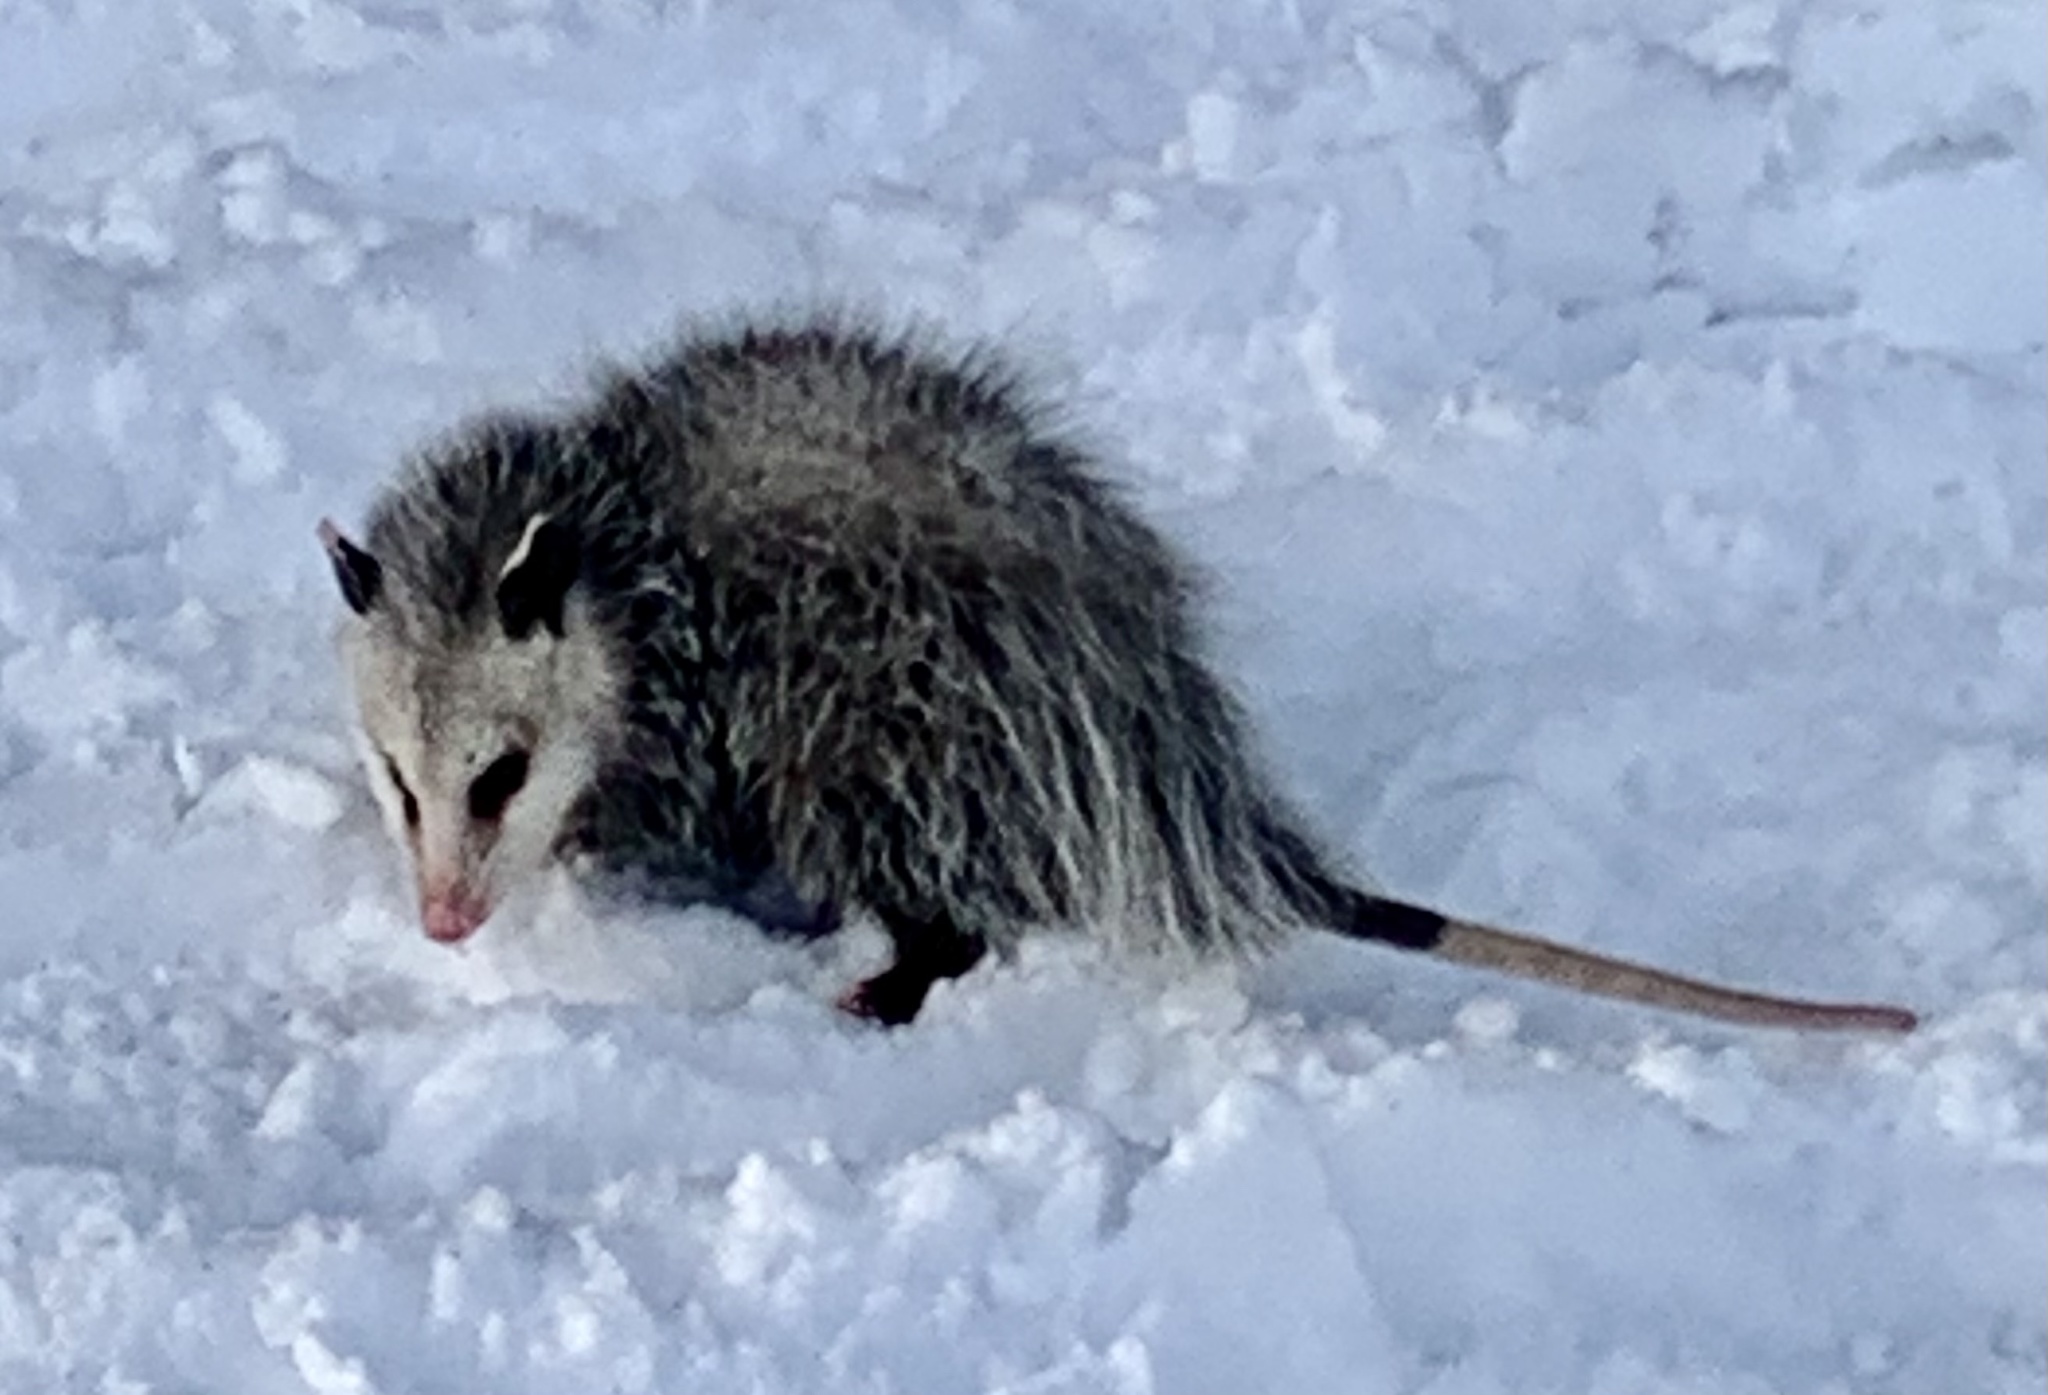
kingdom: Animalia
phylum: Chordata
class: Mammalia
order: Didelphimorphia
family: Didelphidae
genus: Didelphis
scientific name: Didelphis virginiana
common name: Virginia opossum
